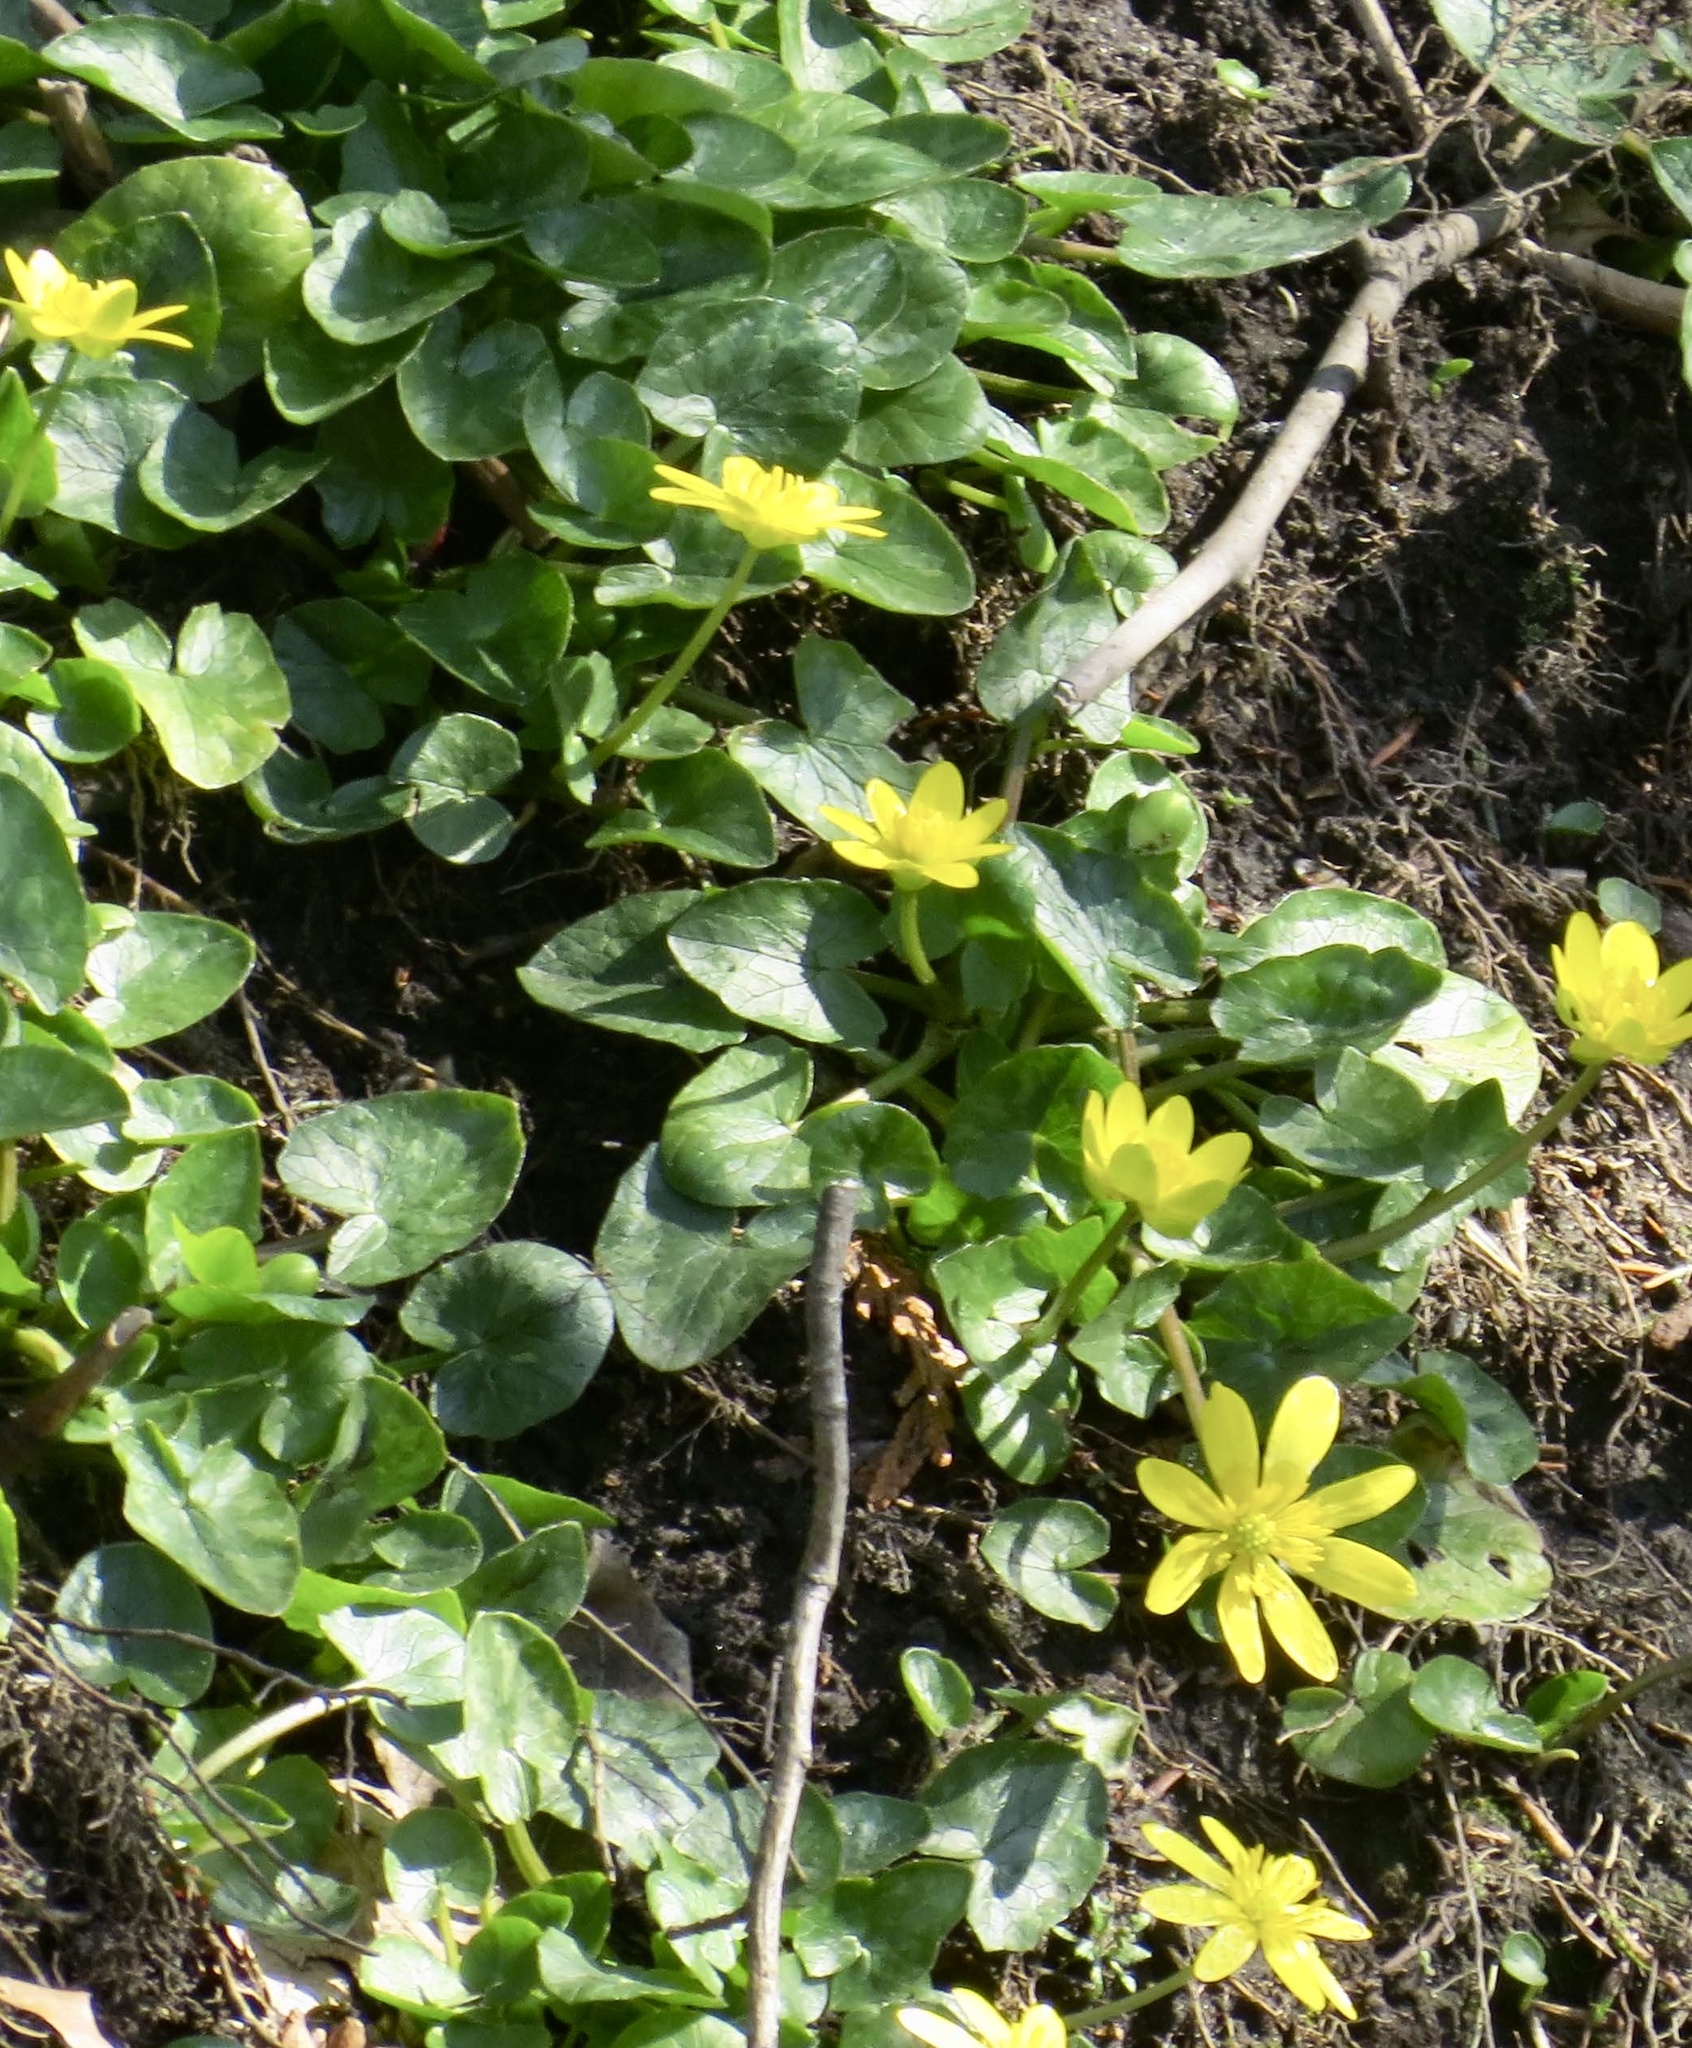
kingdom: Plantae
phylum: Tracheophyta
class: Magnoliopsida
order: Ranunculales
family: Ranunculaceae
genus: Ficaria
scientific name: Ficaria verna
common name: Lesser celandine
